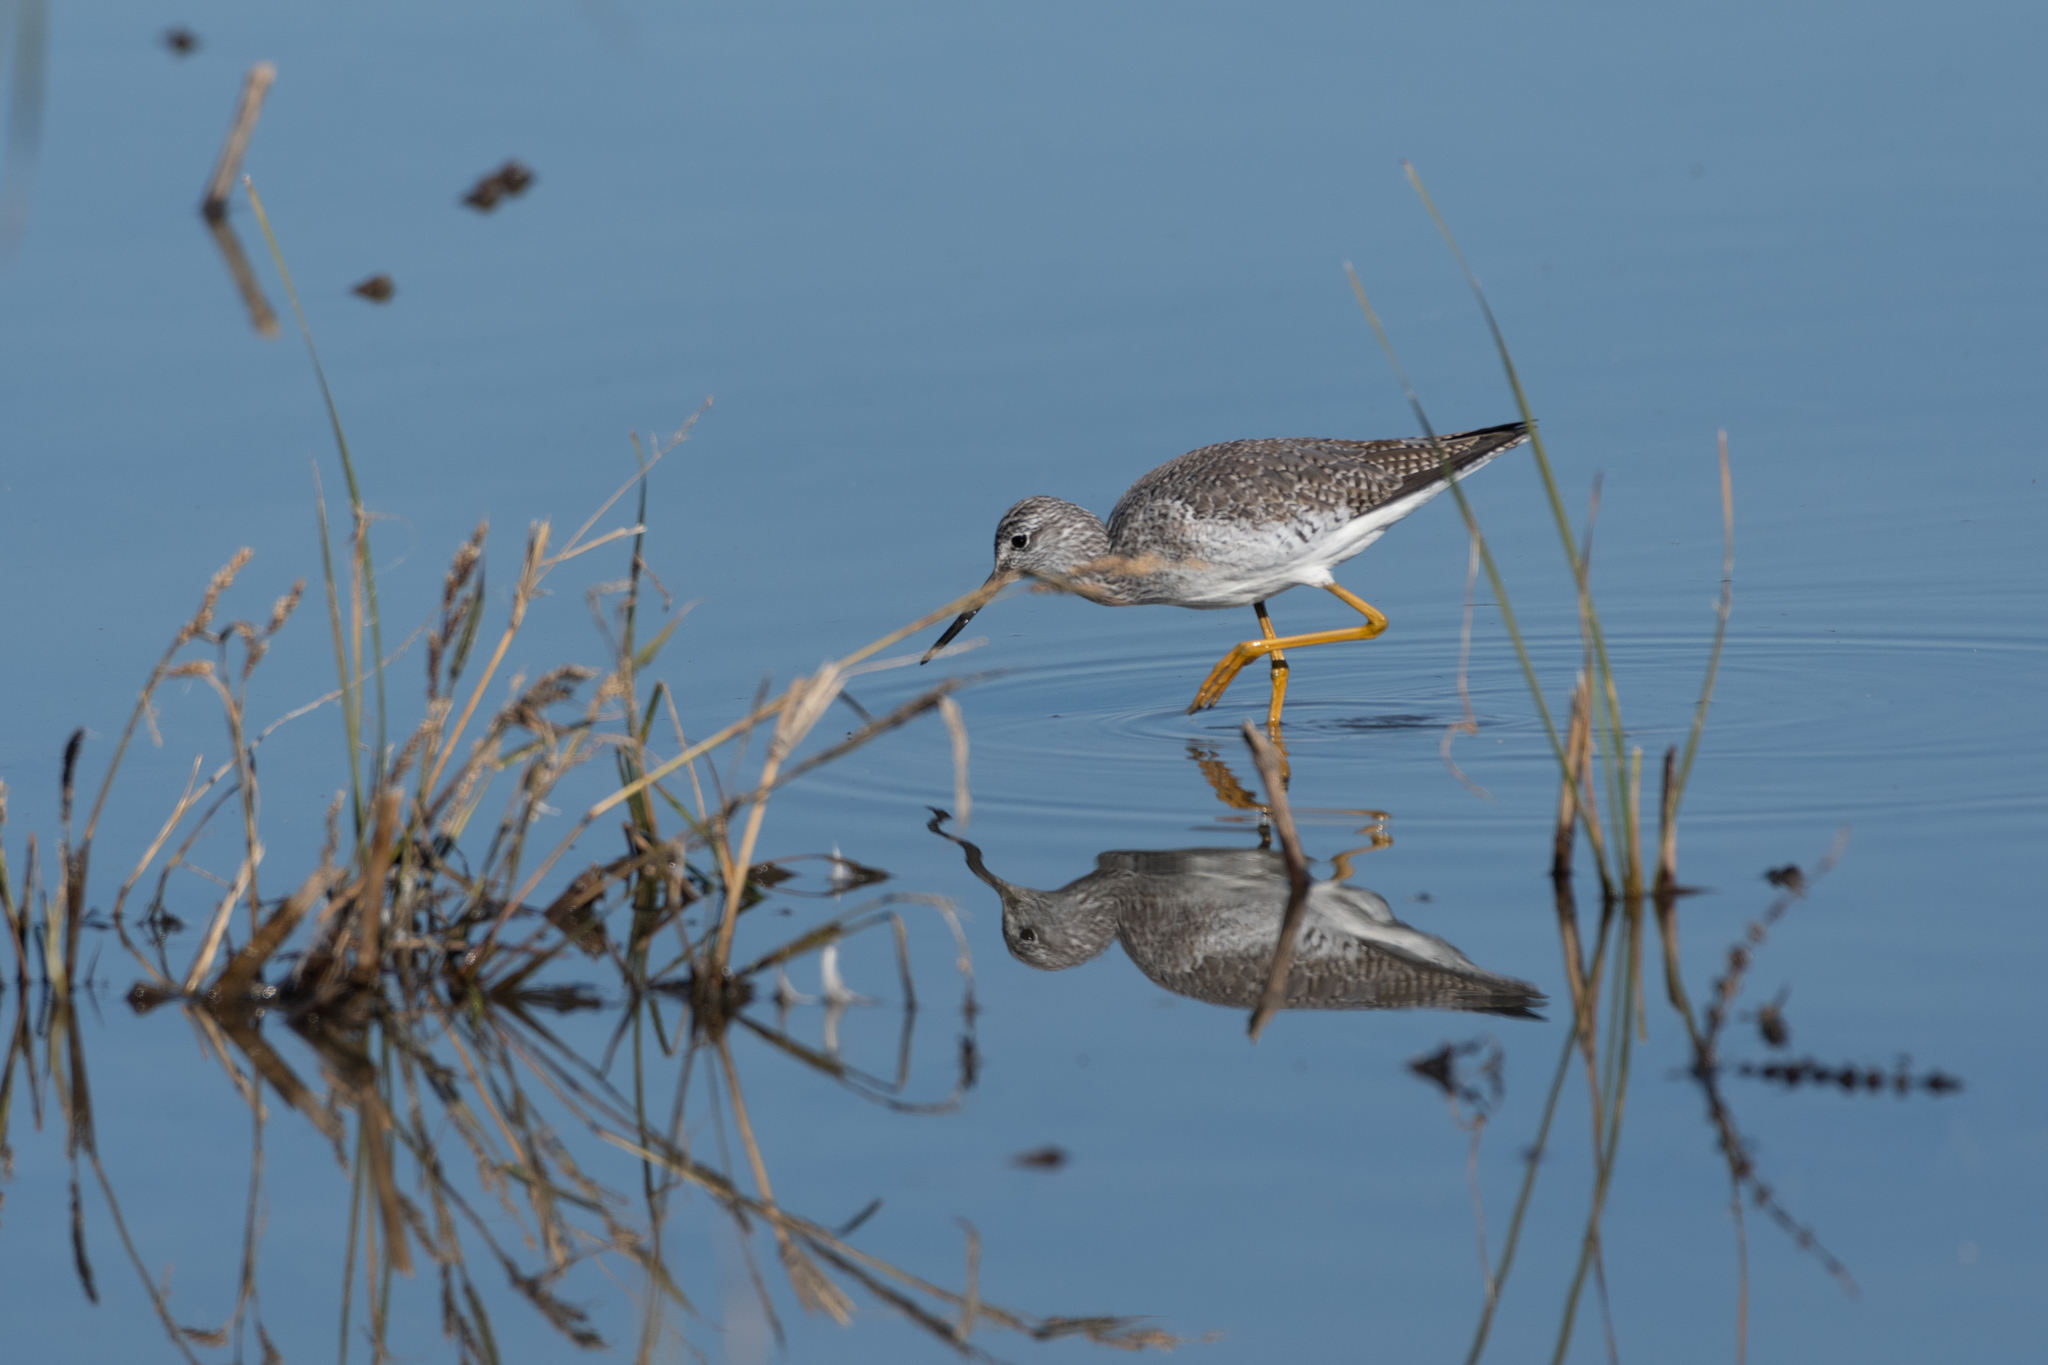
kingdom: Animalia
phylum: Chordata
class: Aves
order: Charadriiformes
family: Scolopacidae
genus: Tringa
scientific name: Tringa melanoleuca
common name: Greater yellowlegs
